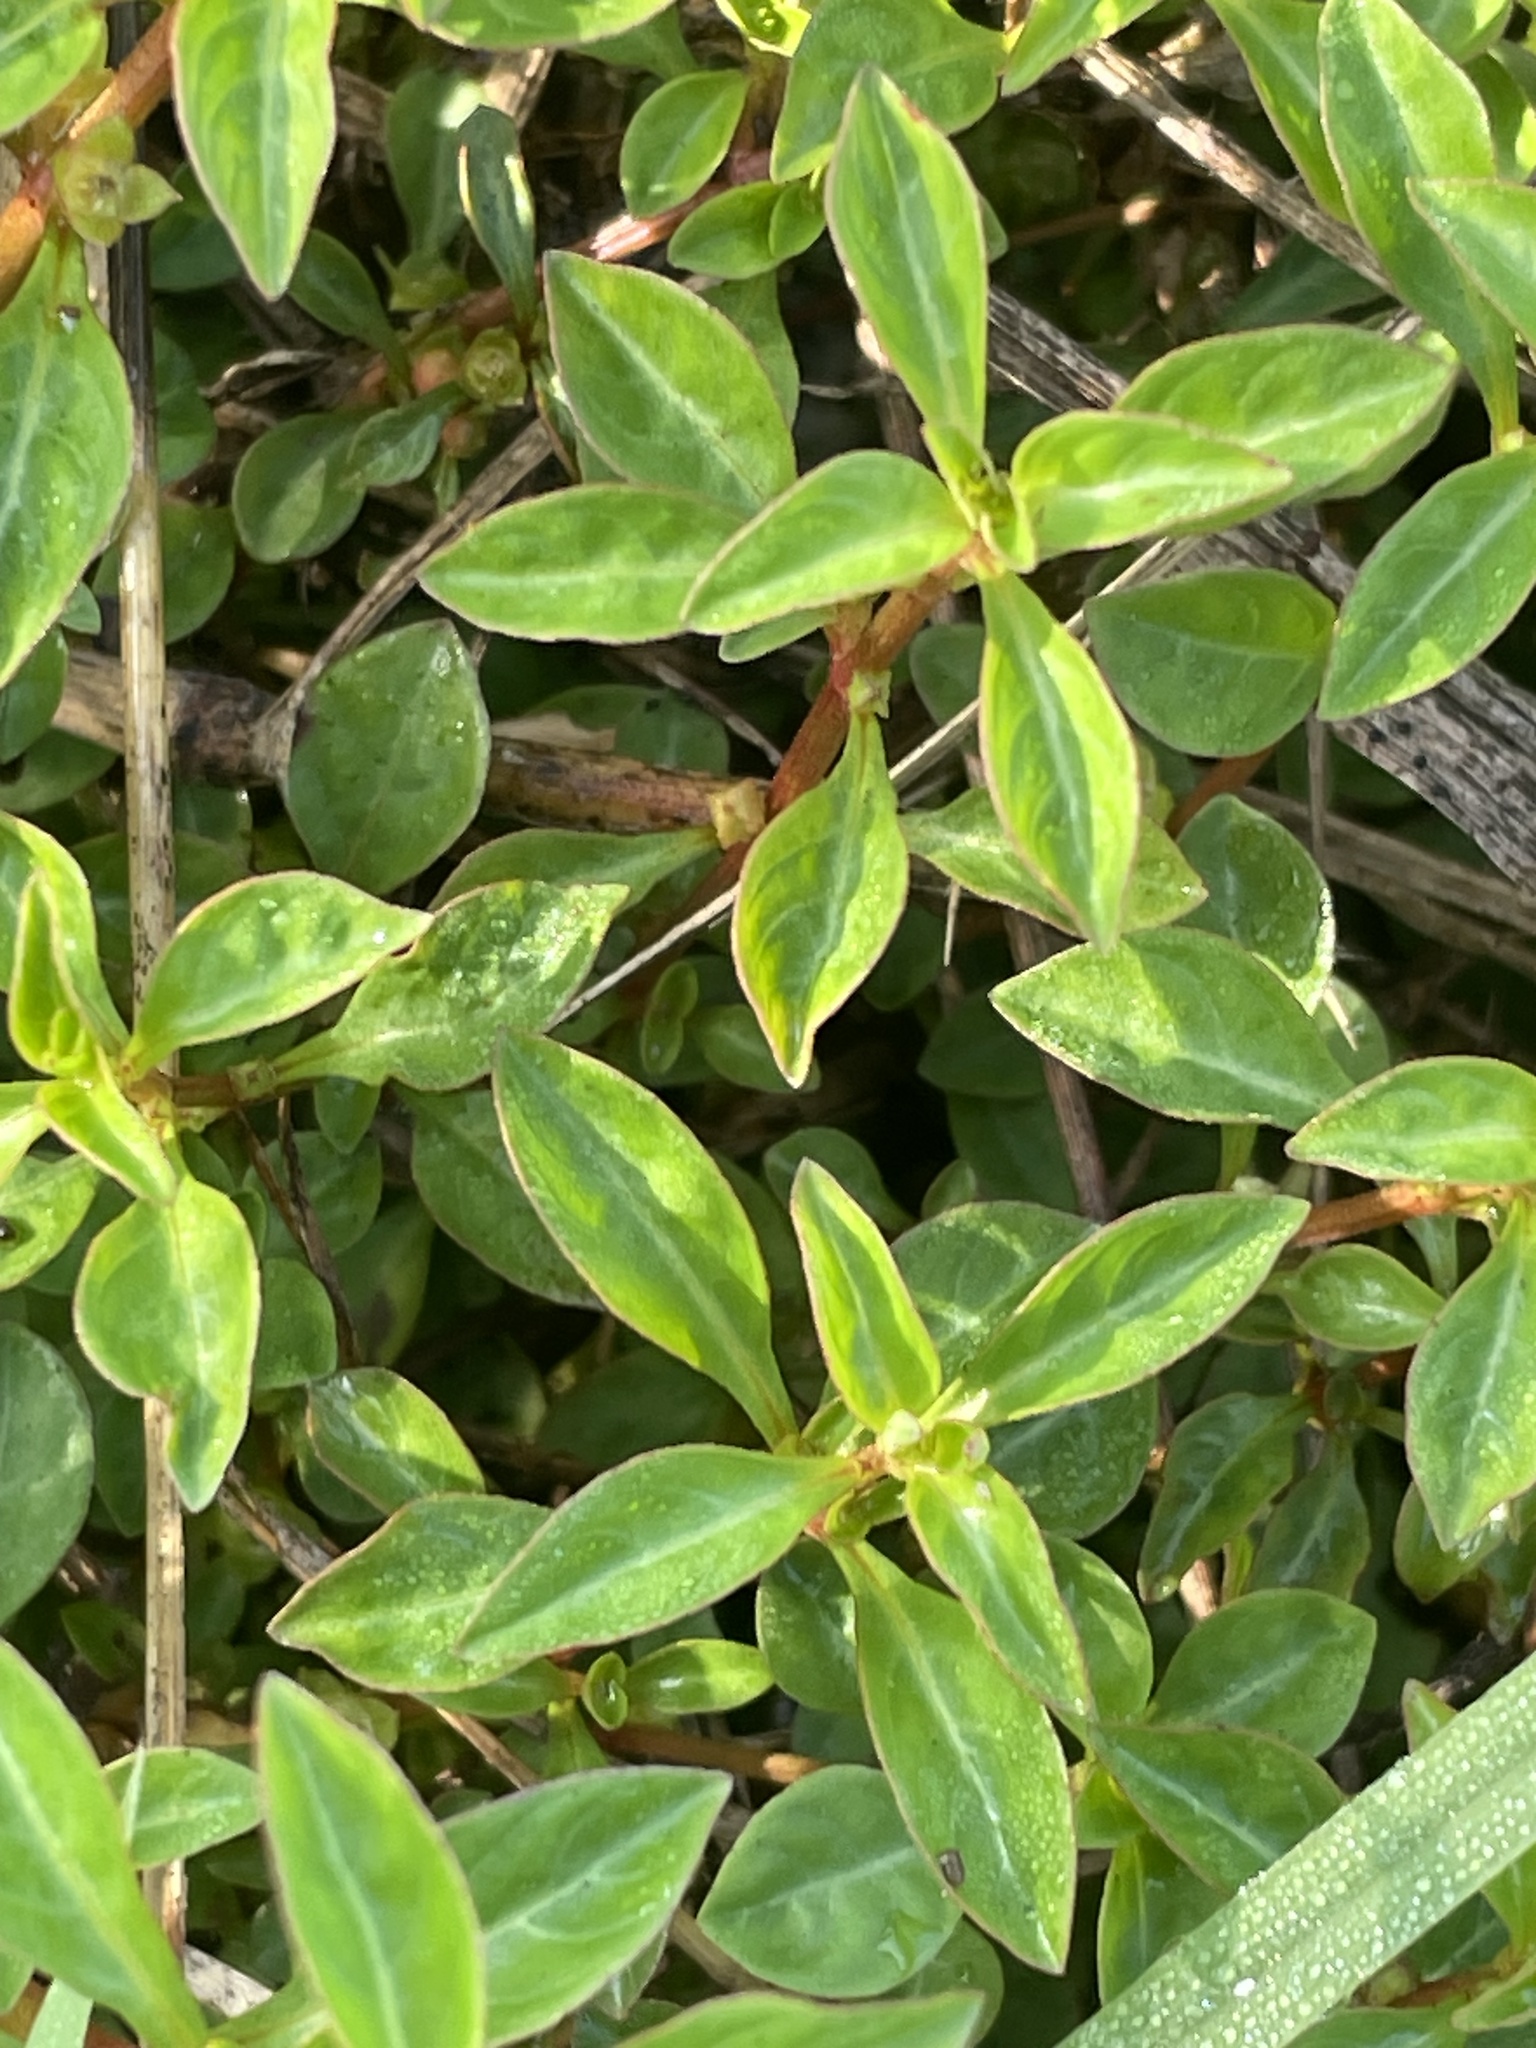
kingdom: Plantae
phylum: Tracheophyta
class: Magnoliopsida
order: Myrtales
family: Onagraceae
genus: Ludwigia
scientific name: Ludwigia palustris
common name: Hampshire-purslane
